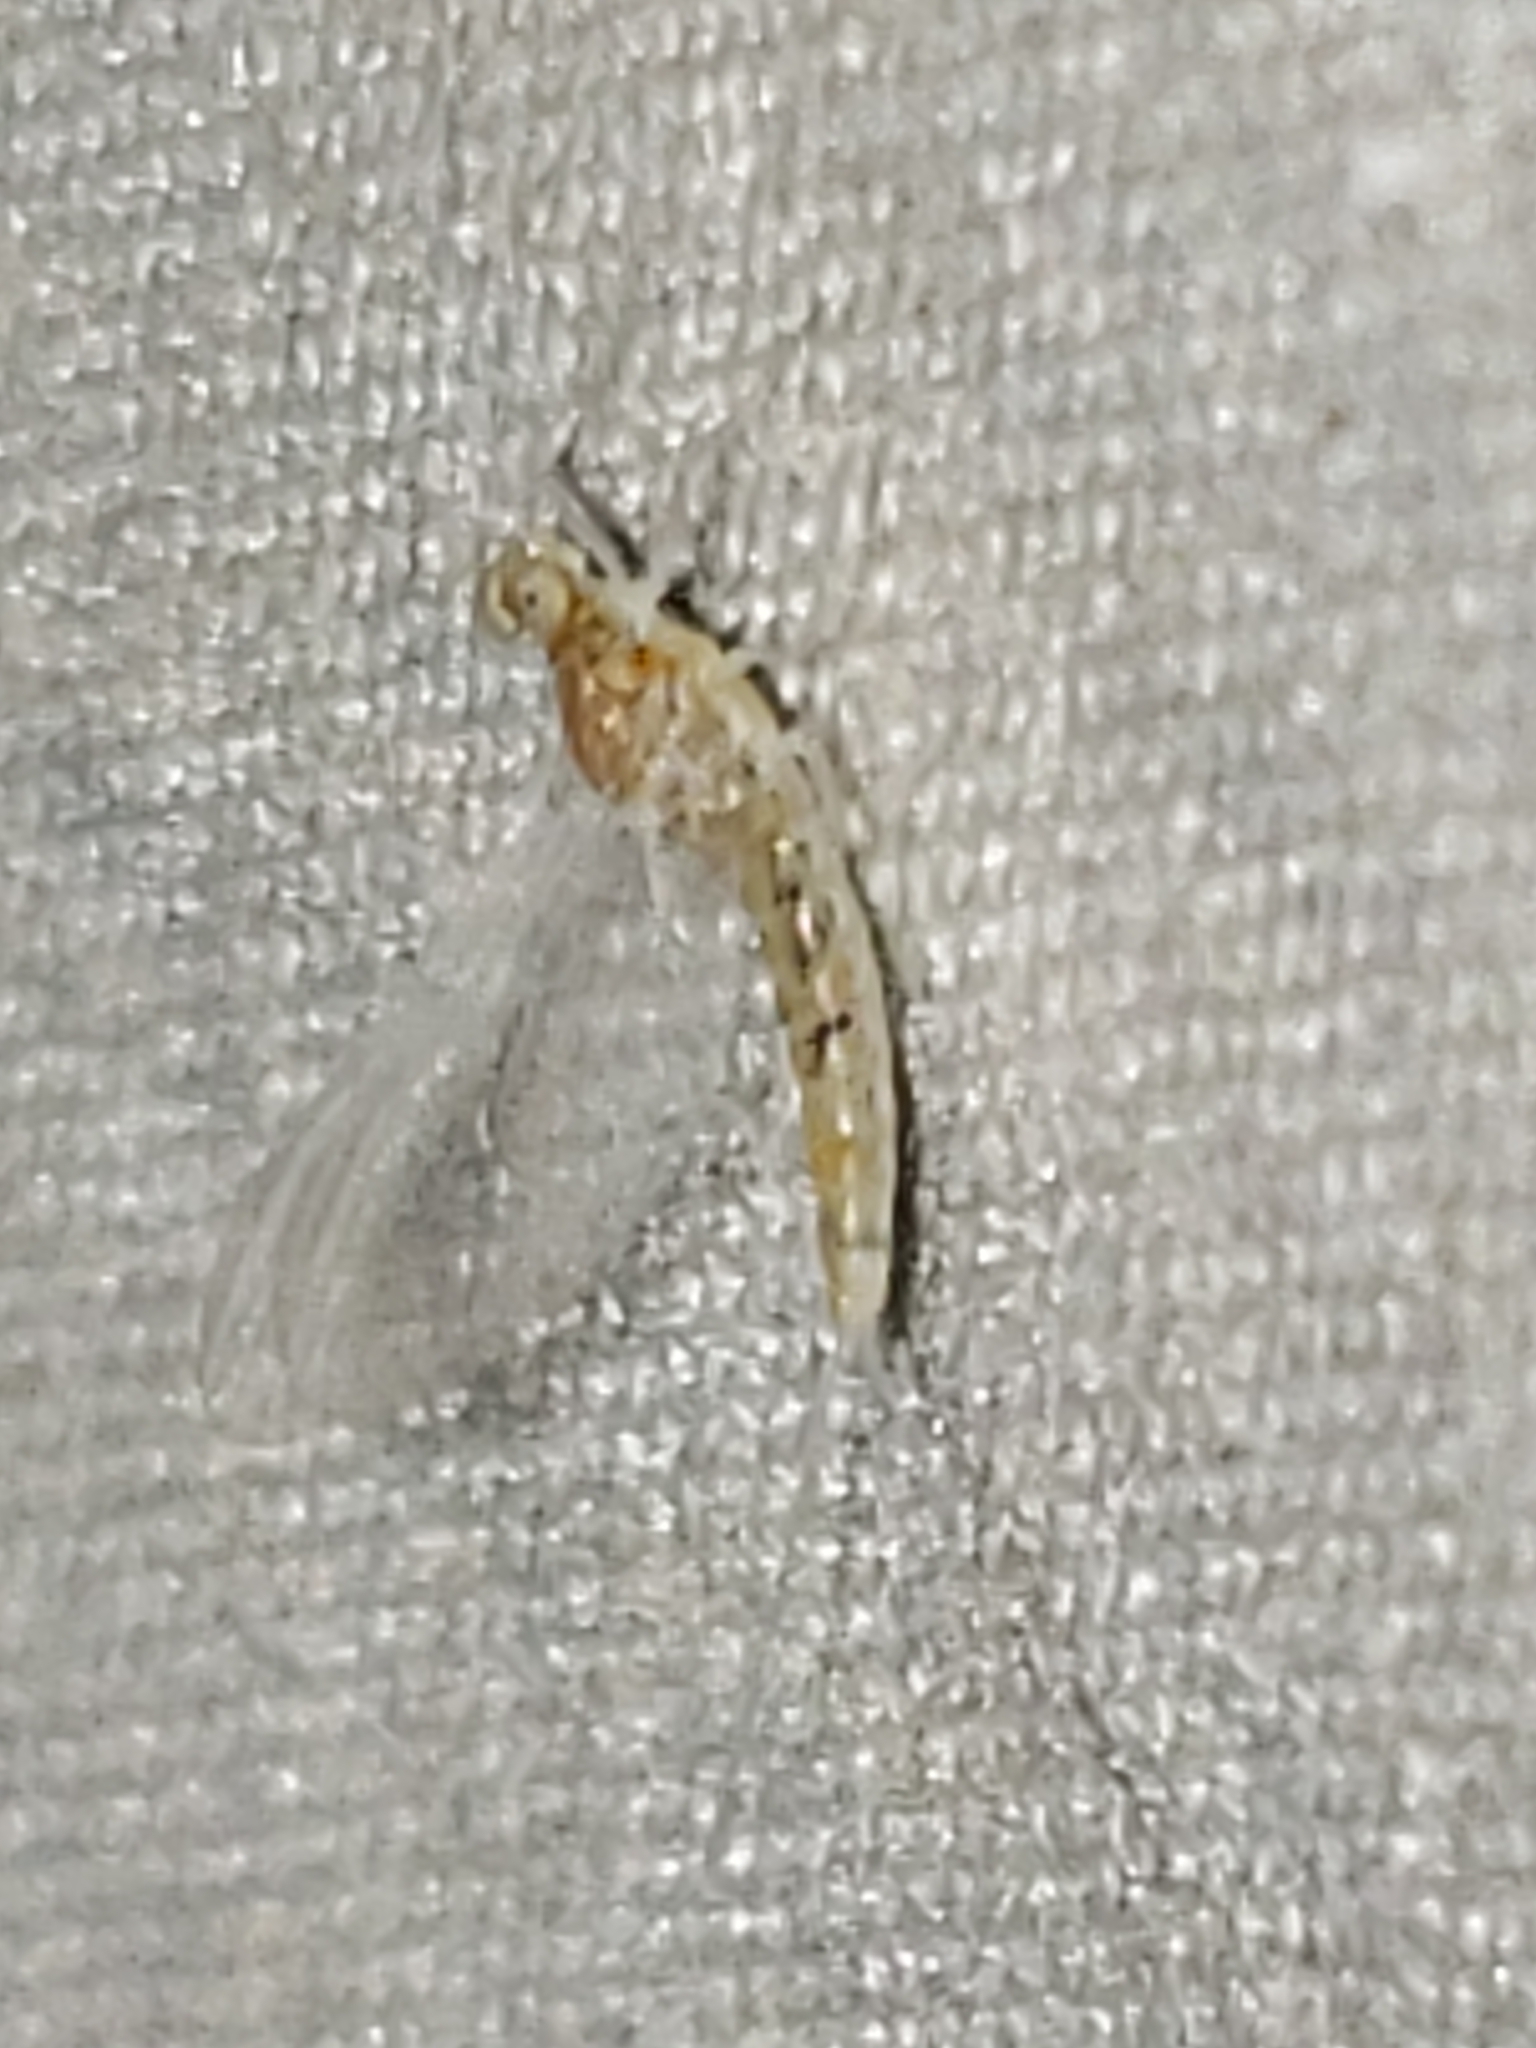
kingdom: Animalia
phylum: Arthropoda
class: Insecta
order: Ephemeroptera
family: Heptageniidae
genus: Leucrocuta
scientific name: Leucrocuta thetis
